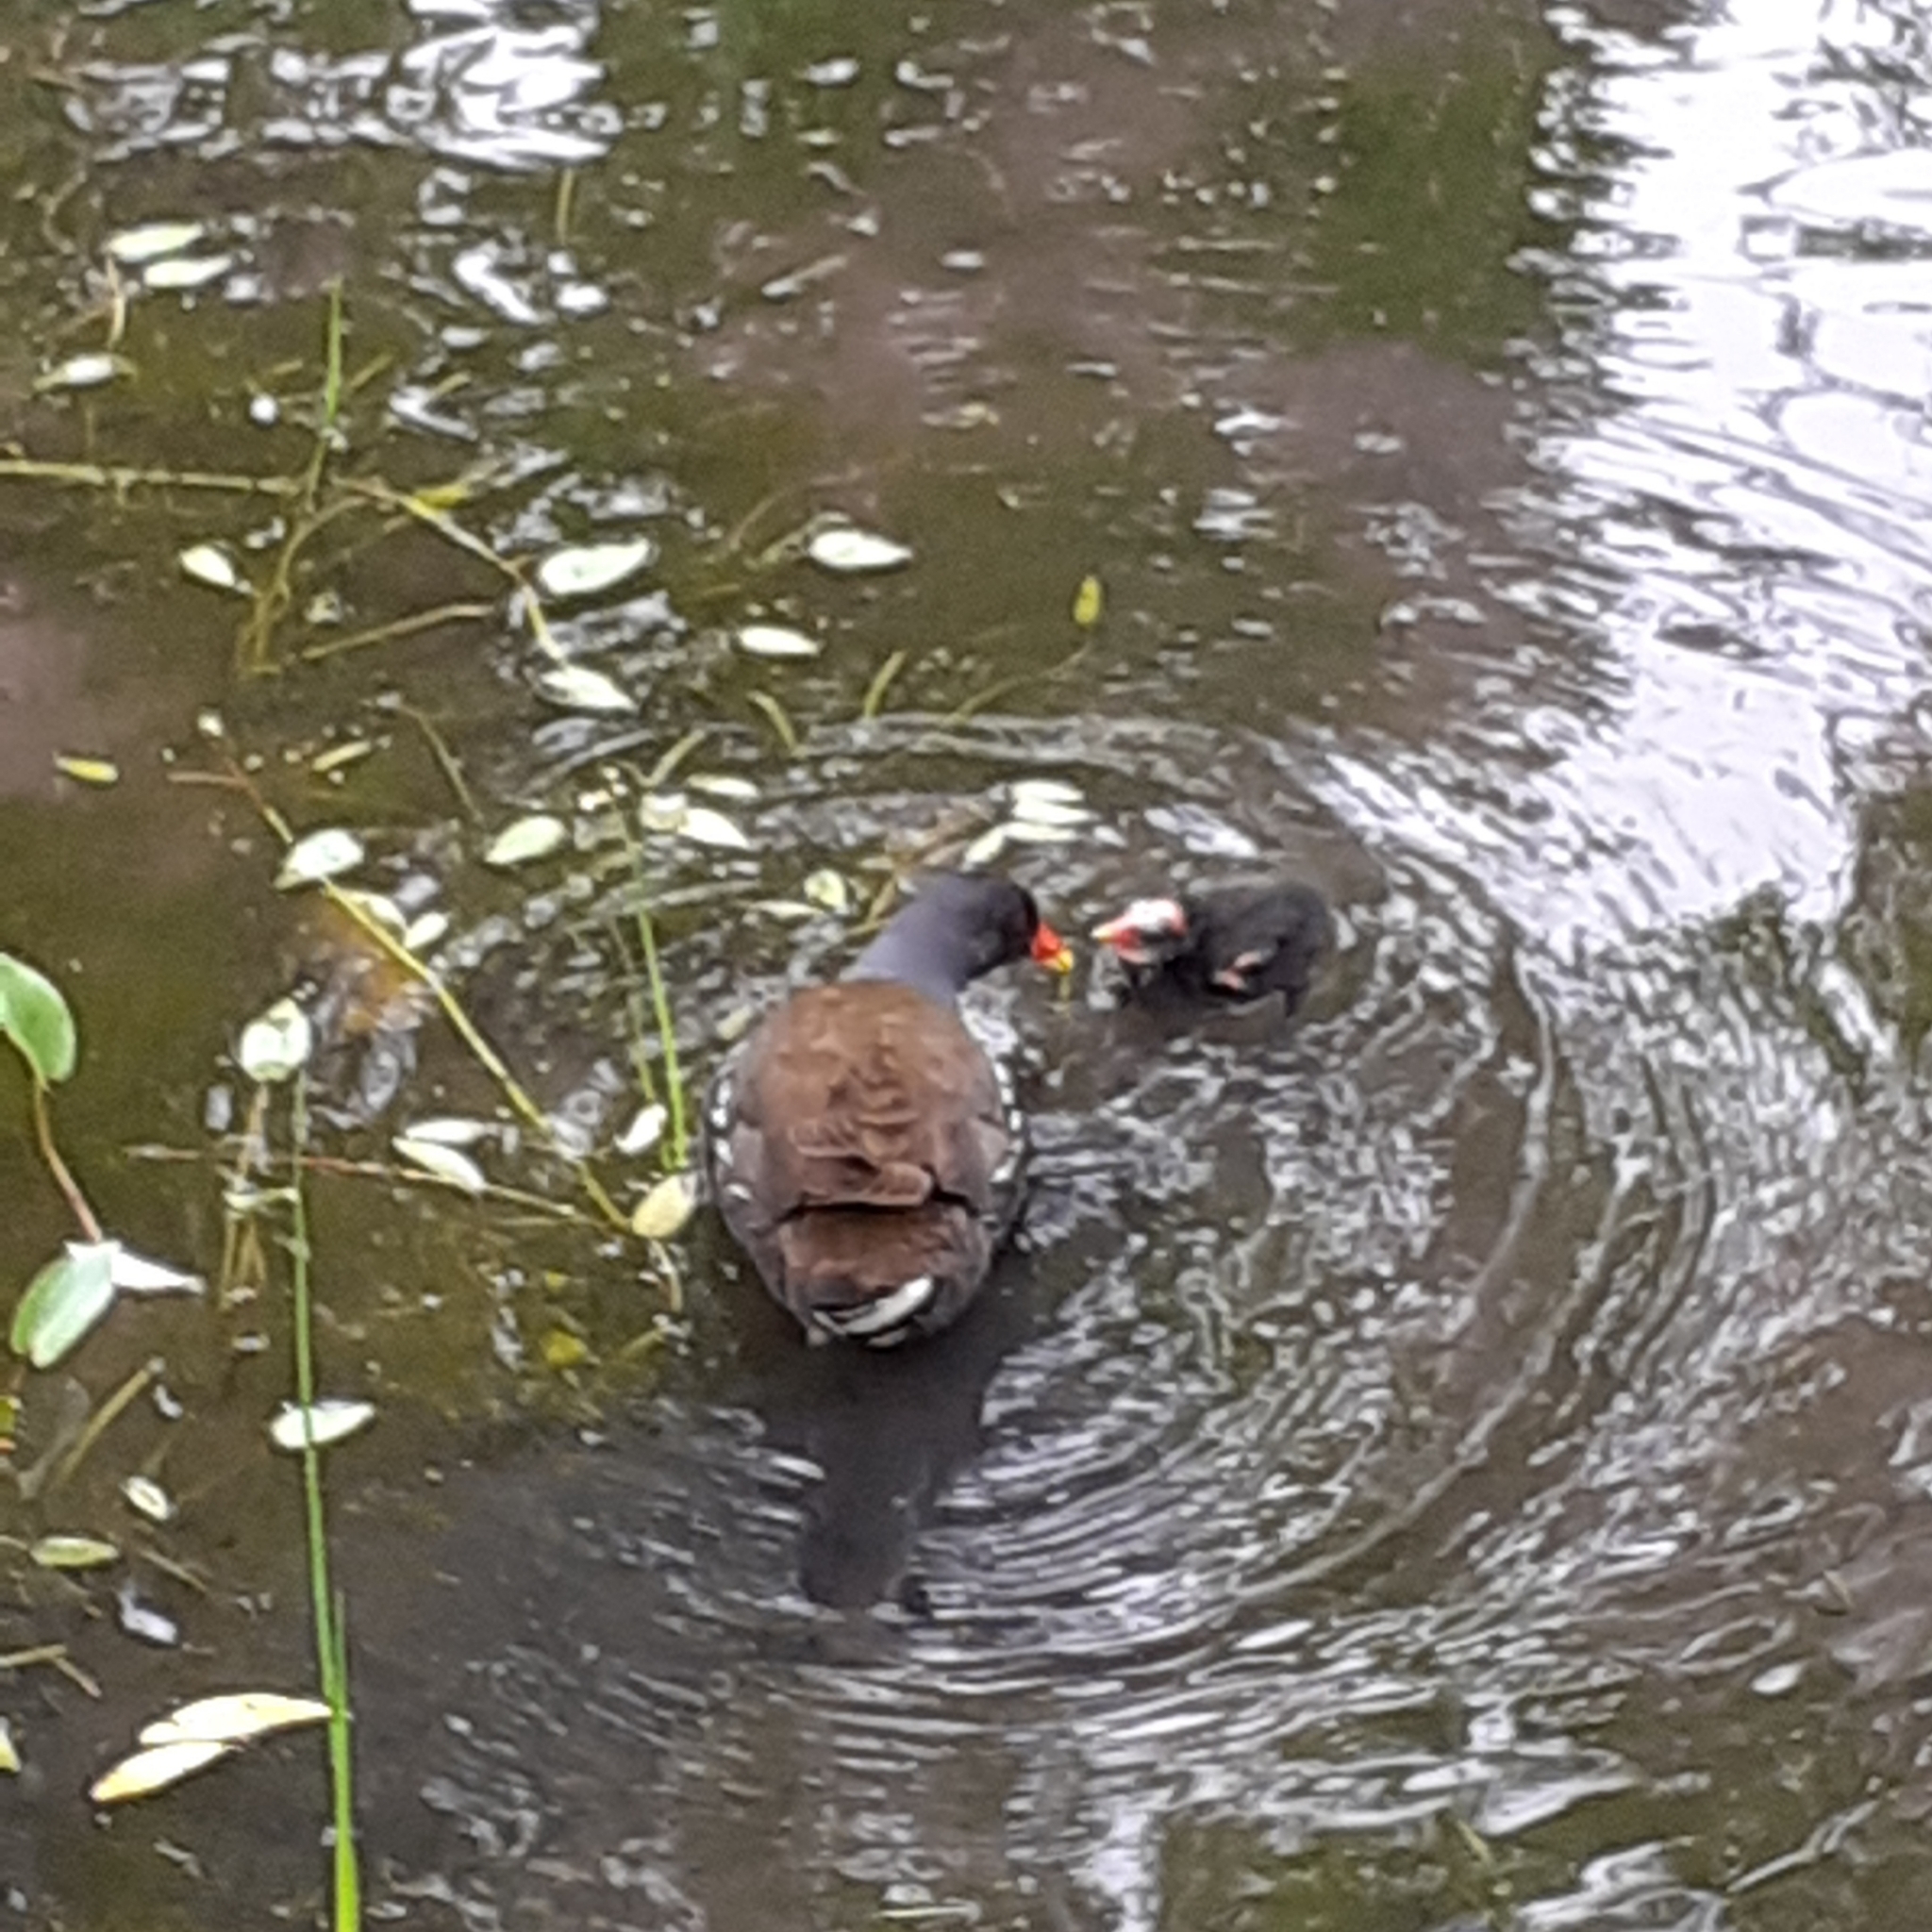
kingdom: Animalia
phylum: Chordata
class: Aves
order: Gruiformes
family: Rallidae
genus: Gallinula
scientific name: Gallinula chloropus
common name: Common moorhen
